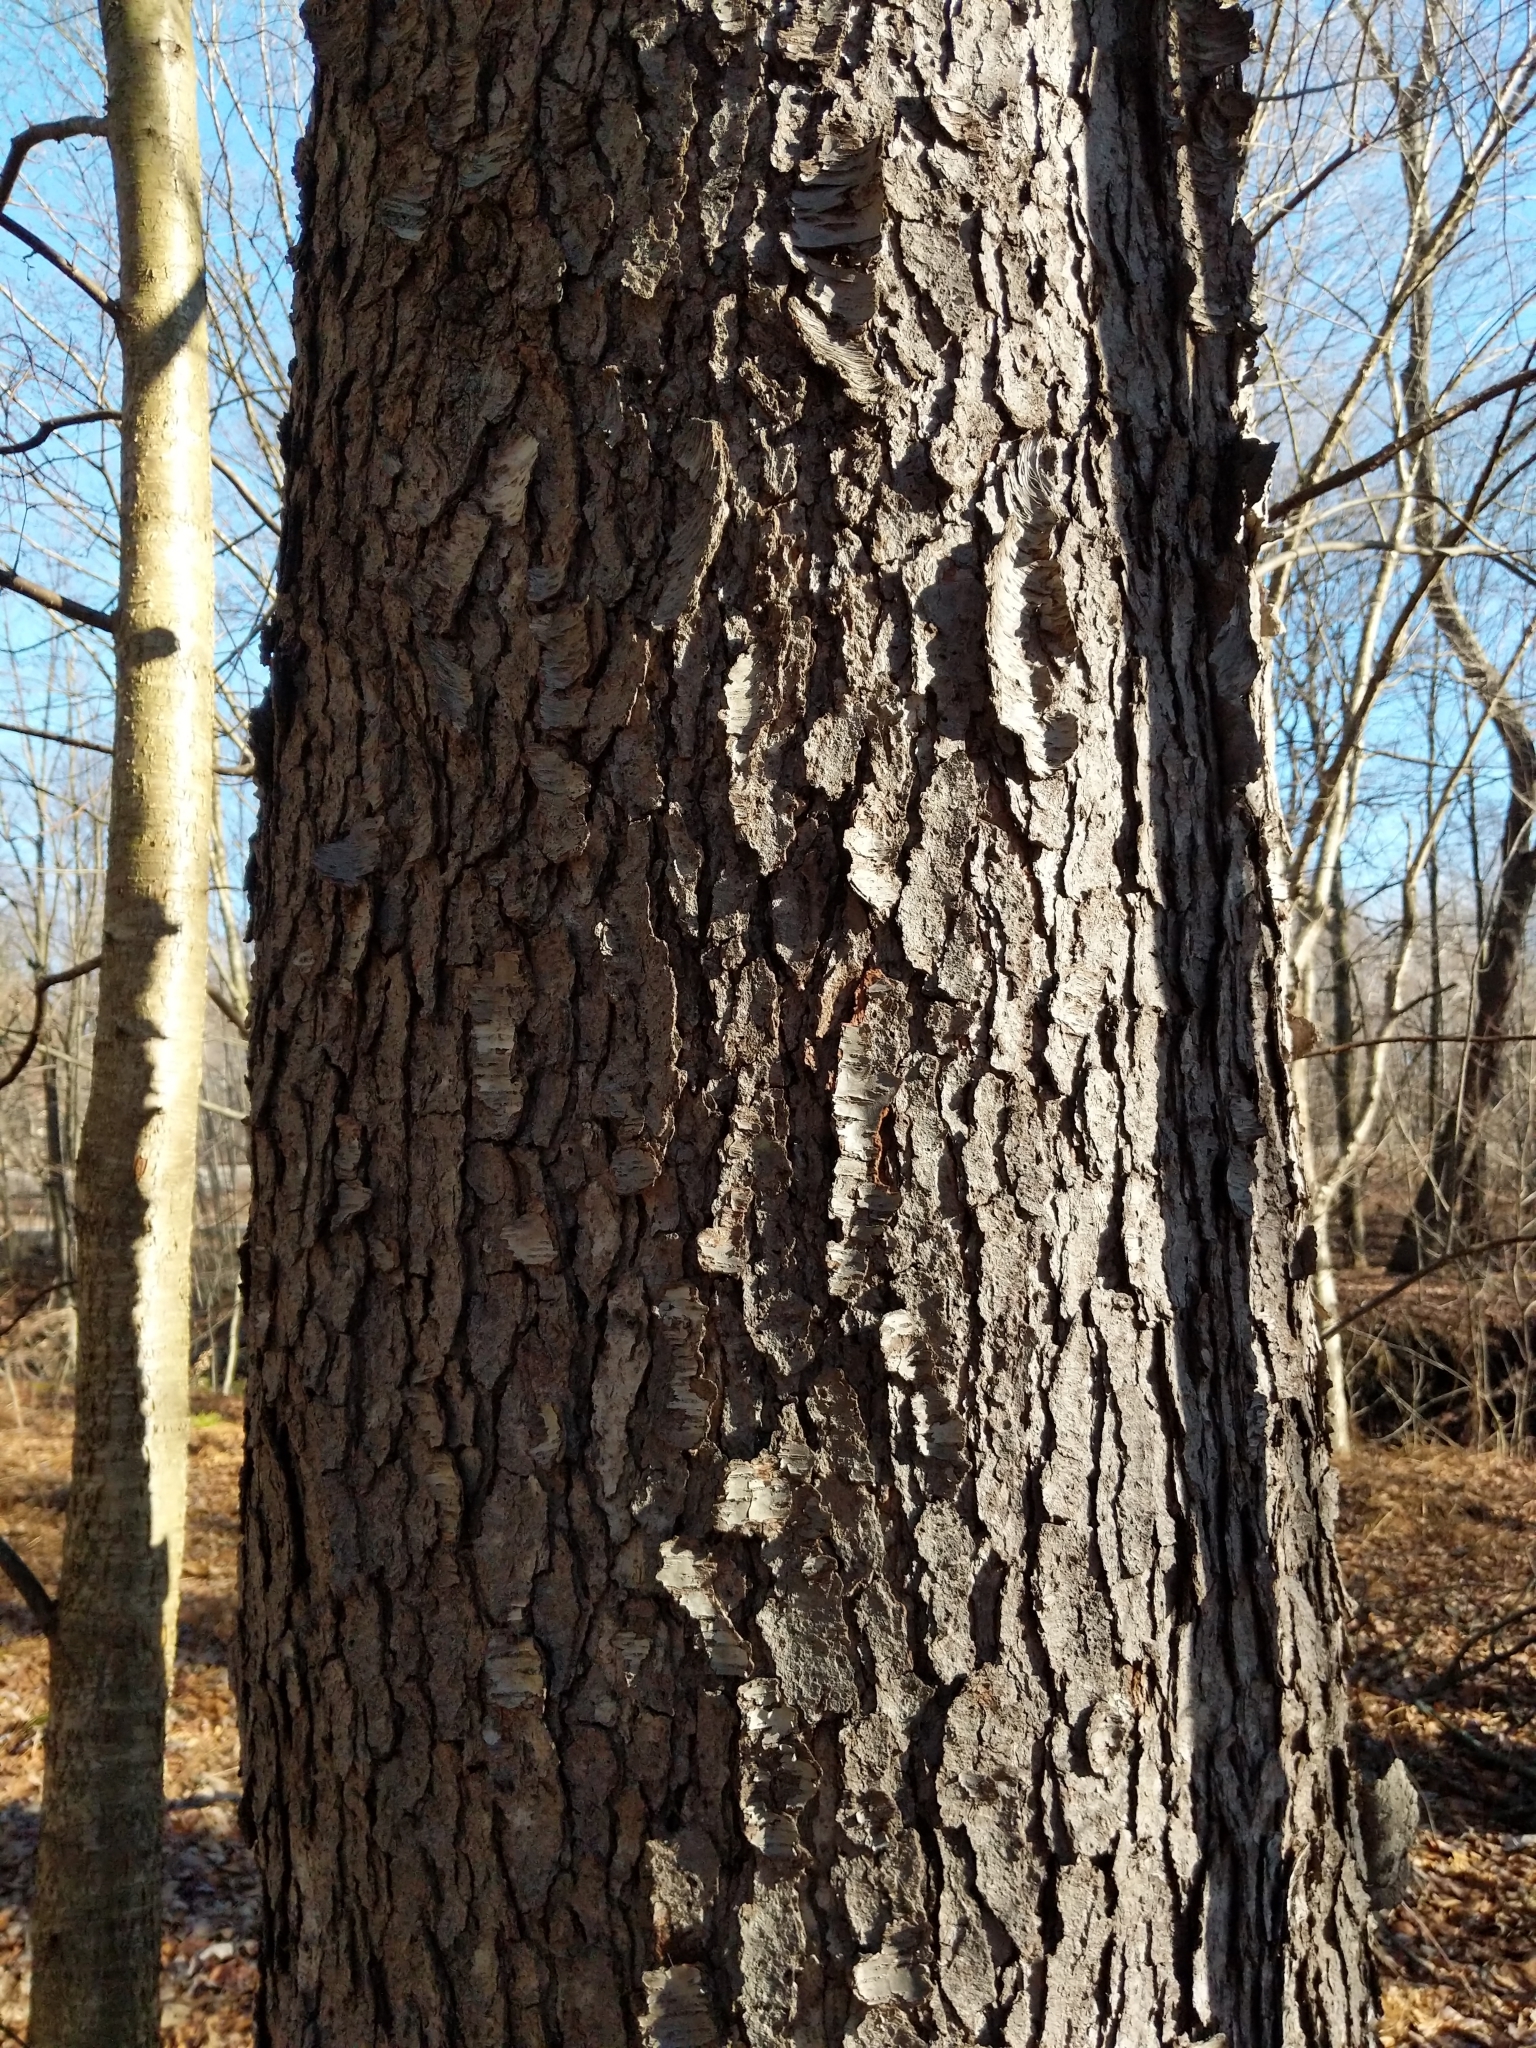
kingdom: Plantae
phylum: Tracheophyta
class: Magnoliopsida
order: Rosales
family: Rosaceae
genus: Prunus
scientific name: Prunus serotina
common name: Black cherry
